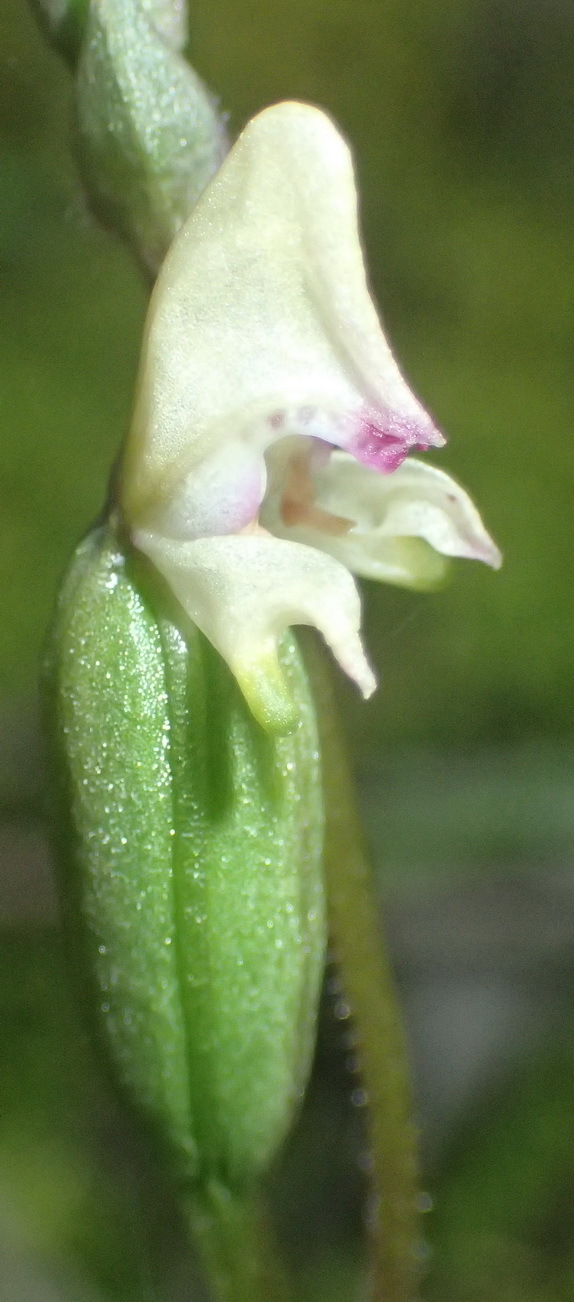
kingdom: Plantae
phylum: Tracheophyta
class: Liliopsida
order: Asparagales
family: Orchidaceae
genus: Disperis
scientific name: Disperis macowanii
